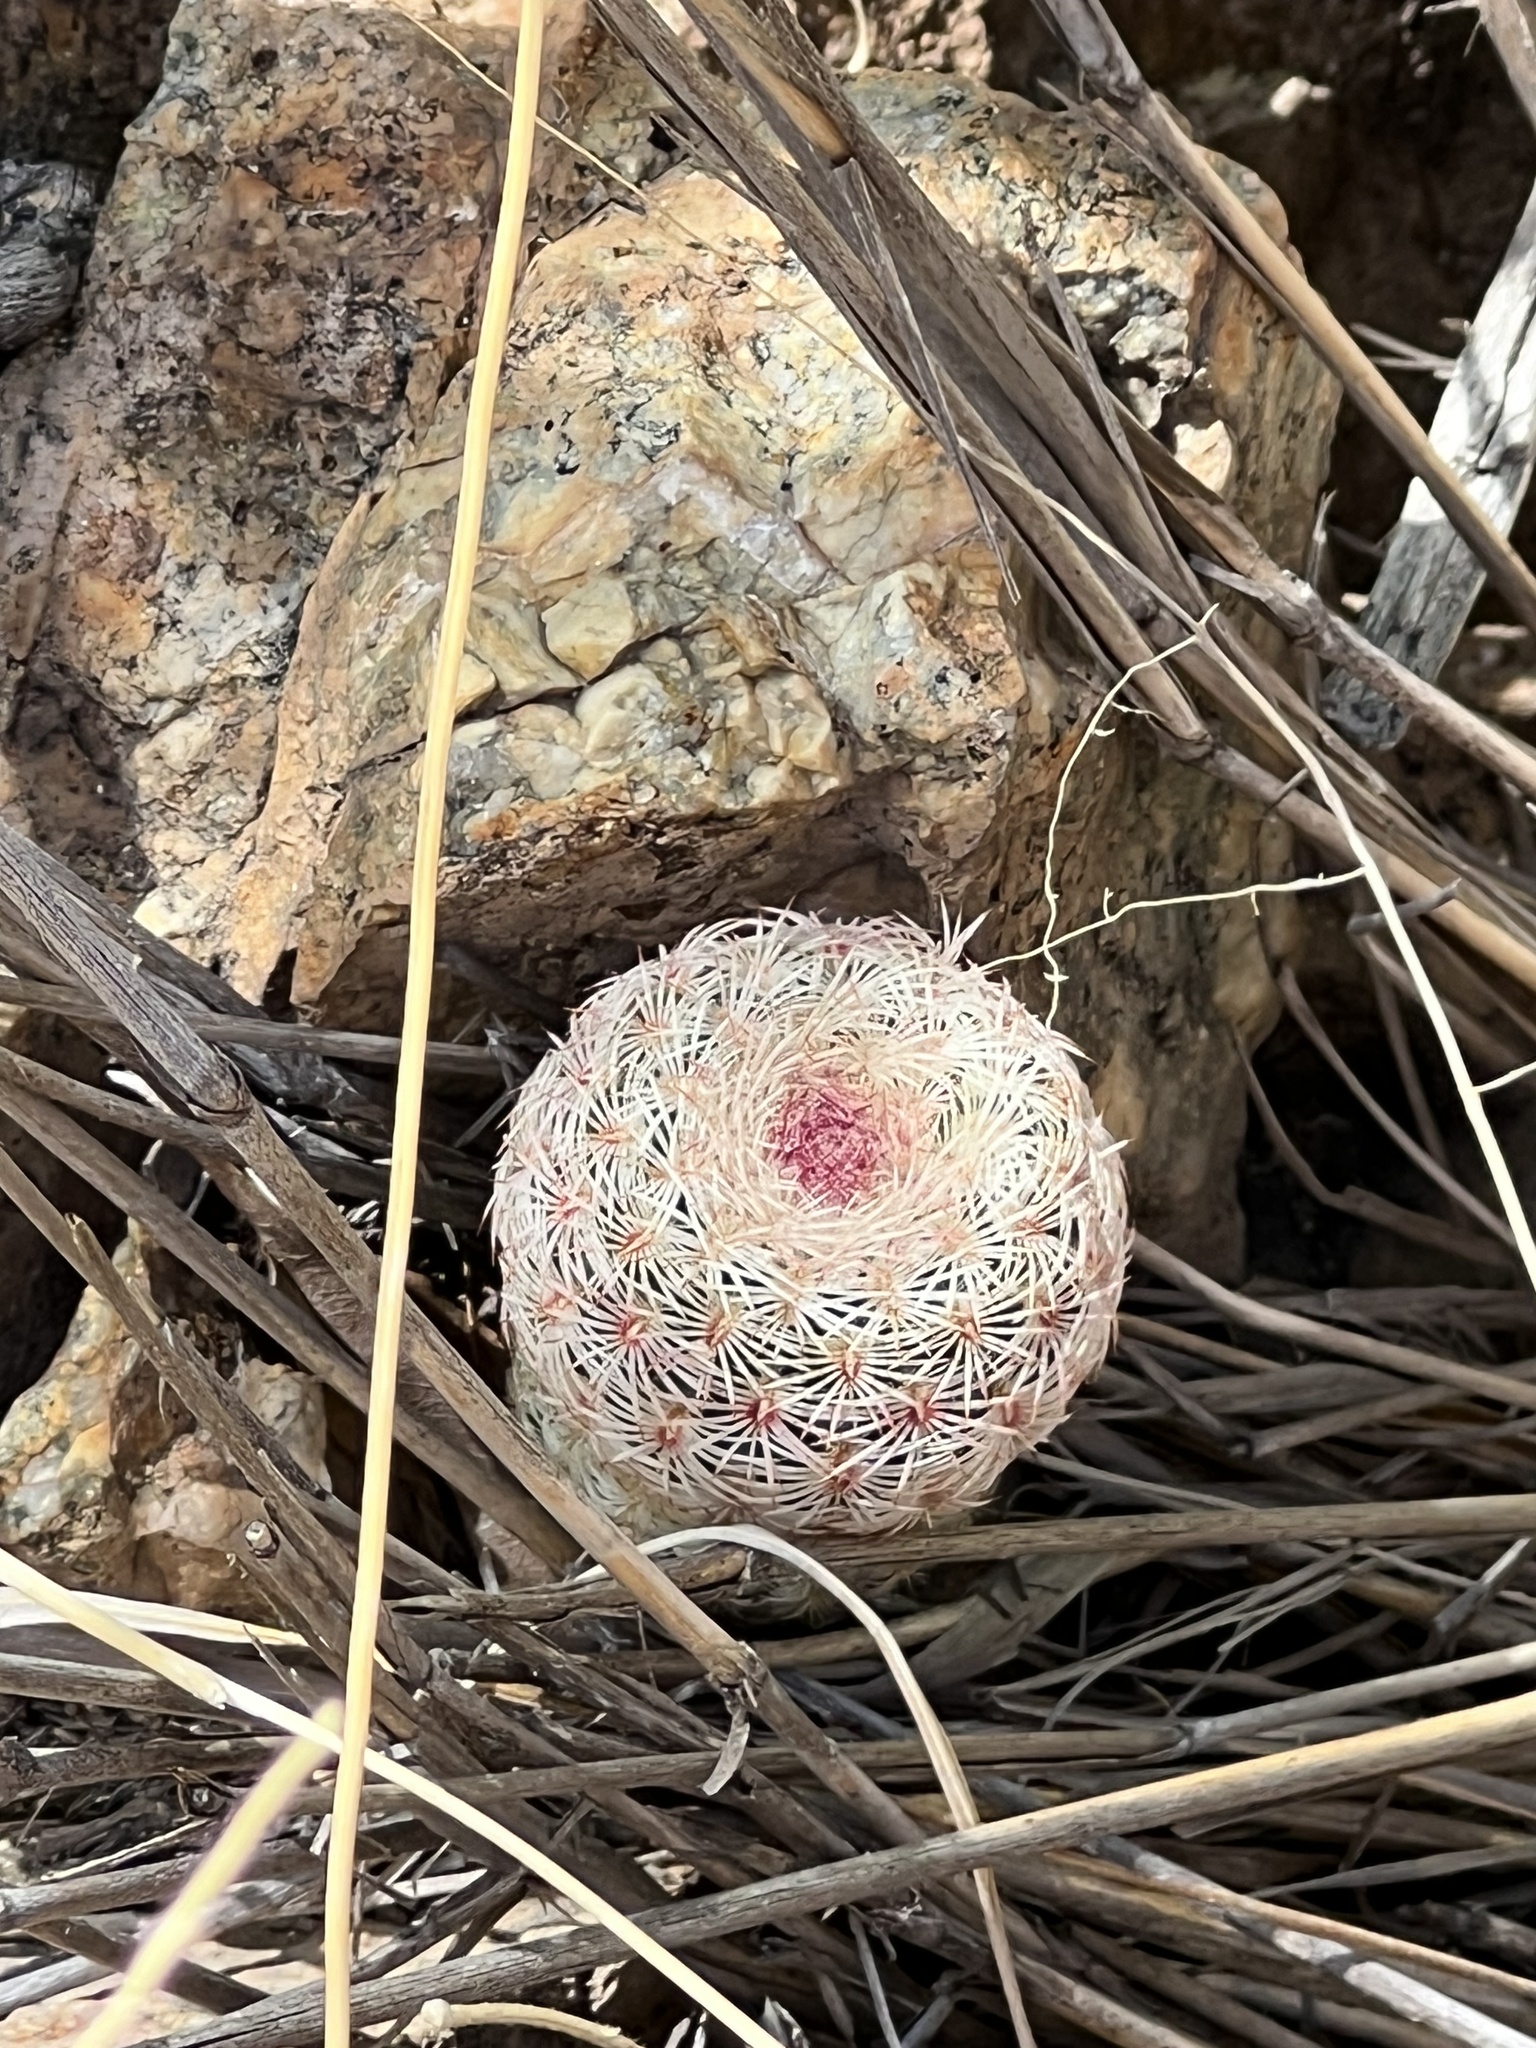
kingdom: Plantae
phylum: Tracheophyta
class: Magnoliopsida
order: Caryophyllales
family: Cactaceae
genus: Echinocereus
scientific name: Echinocereus rigidissimus
